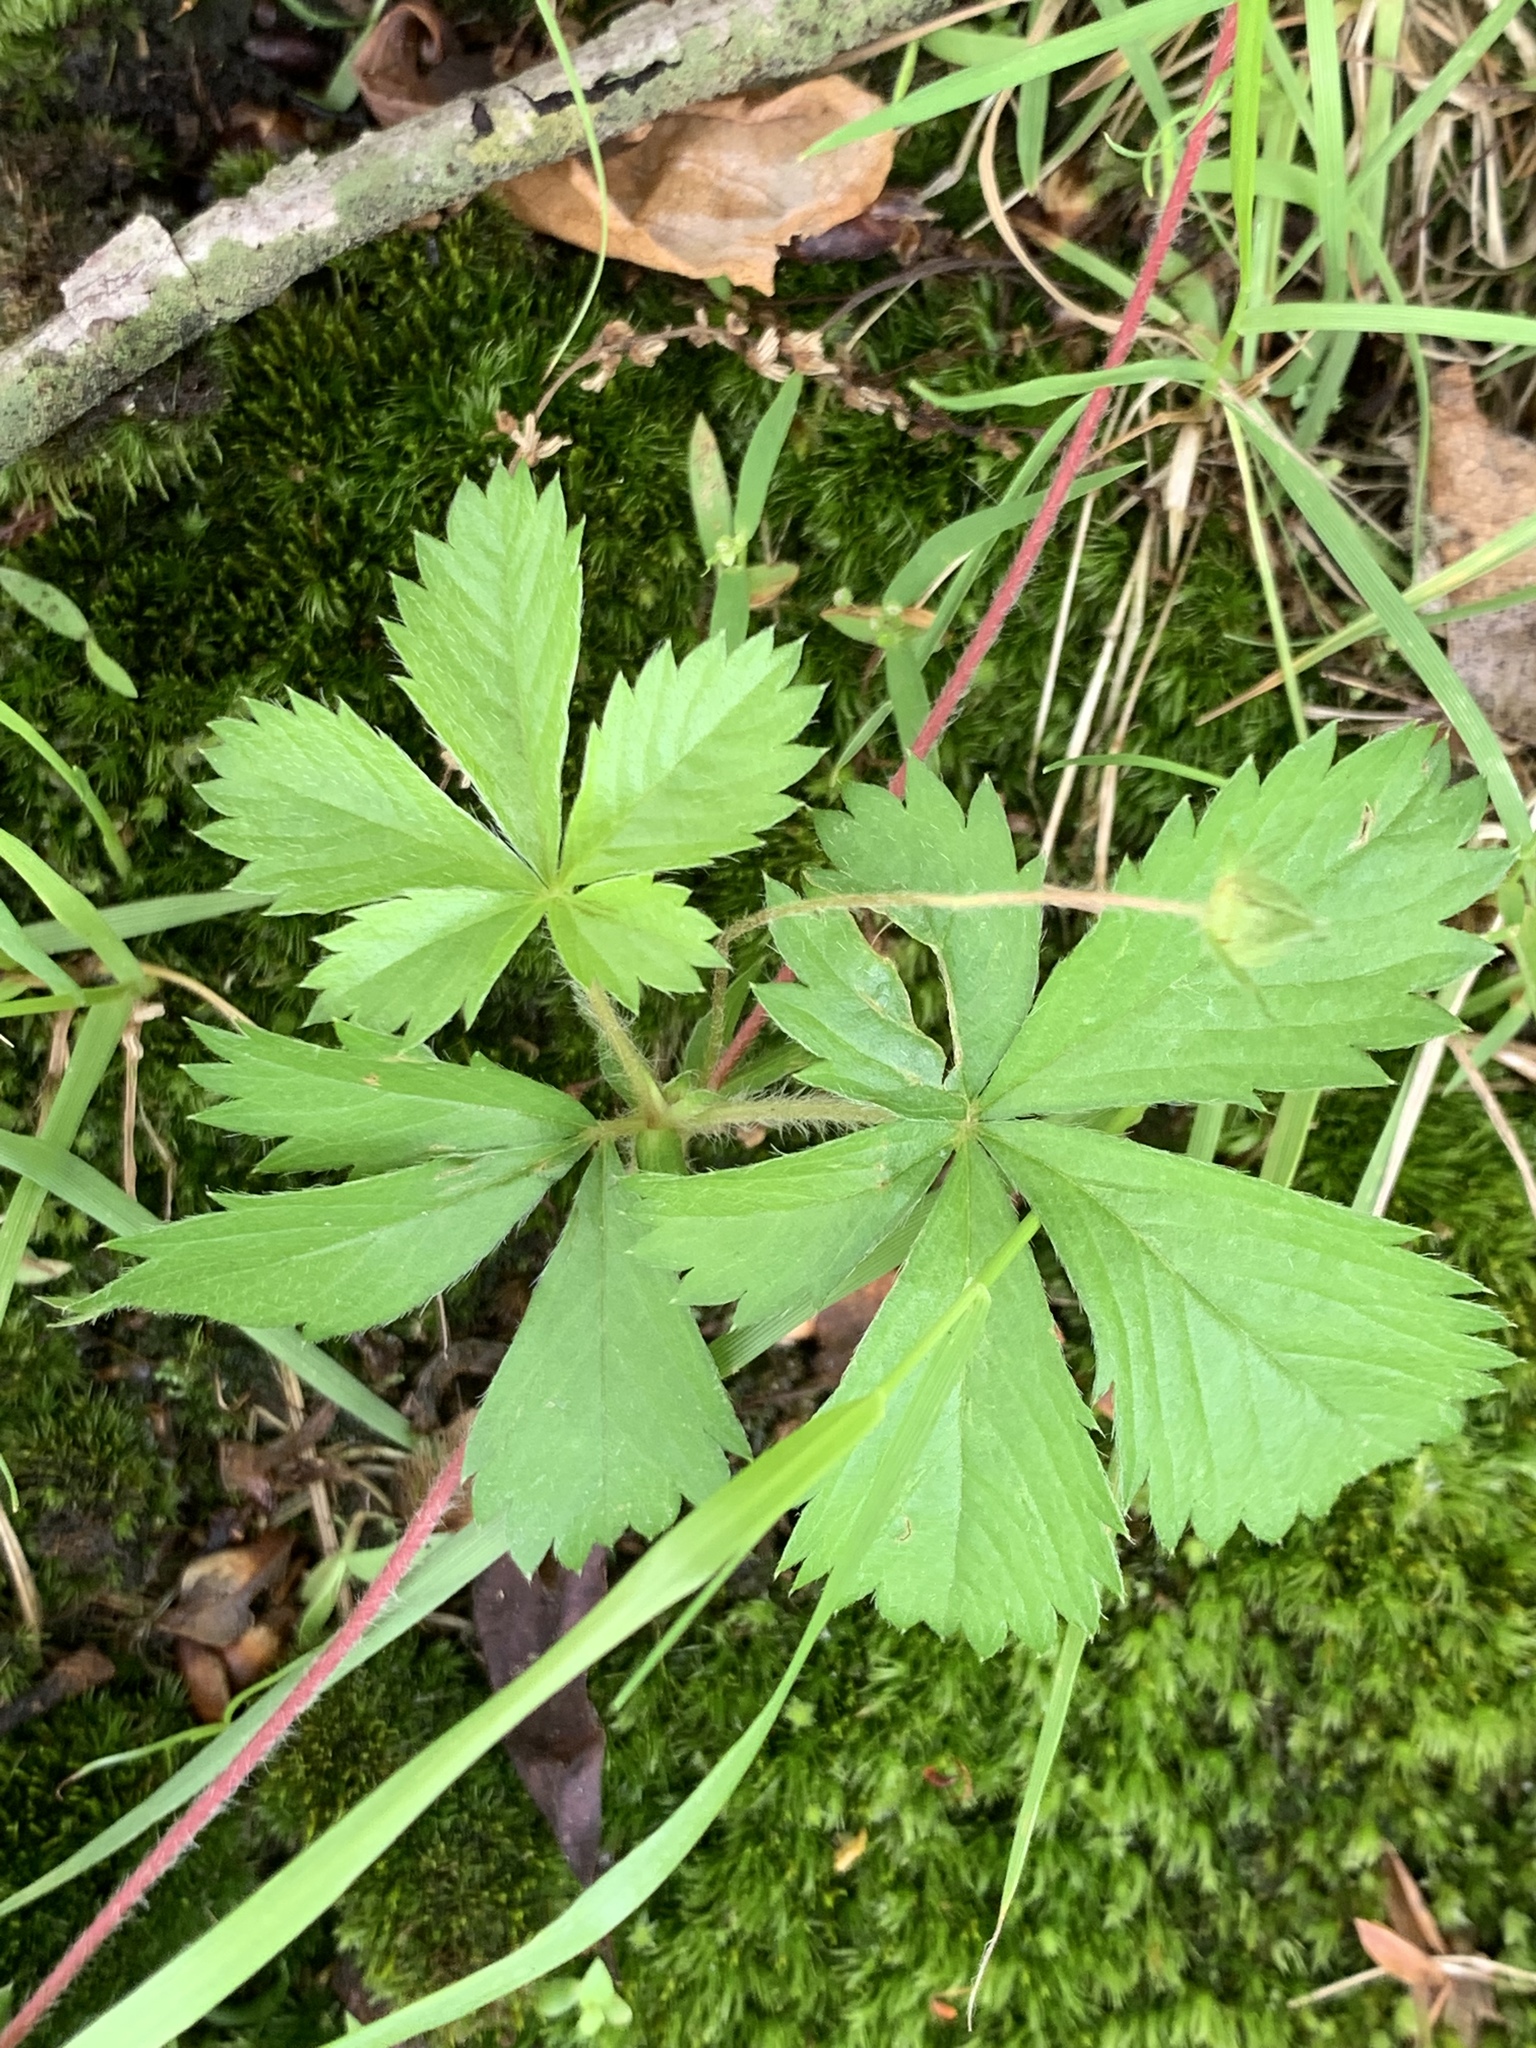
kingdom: Plantae
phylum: Tracheophyta
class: Magnoliopsida
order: Rosales
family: Rosaceae
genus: Potentilla
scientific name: Potentilla canadensis
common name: Canada cinquefoil
